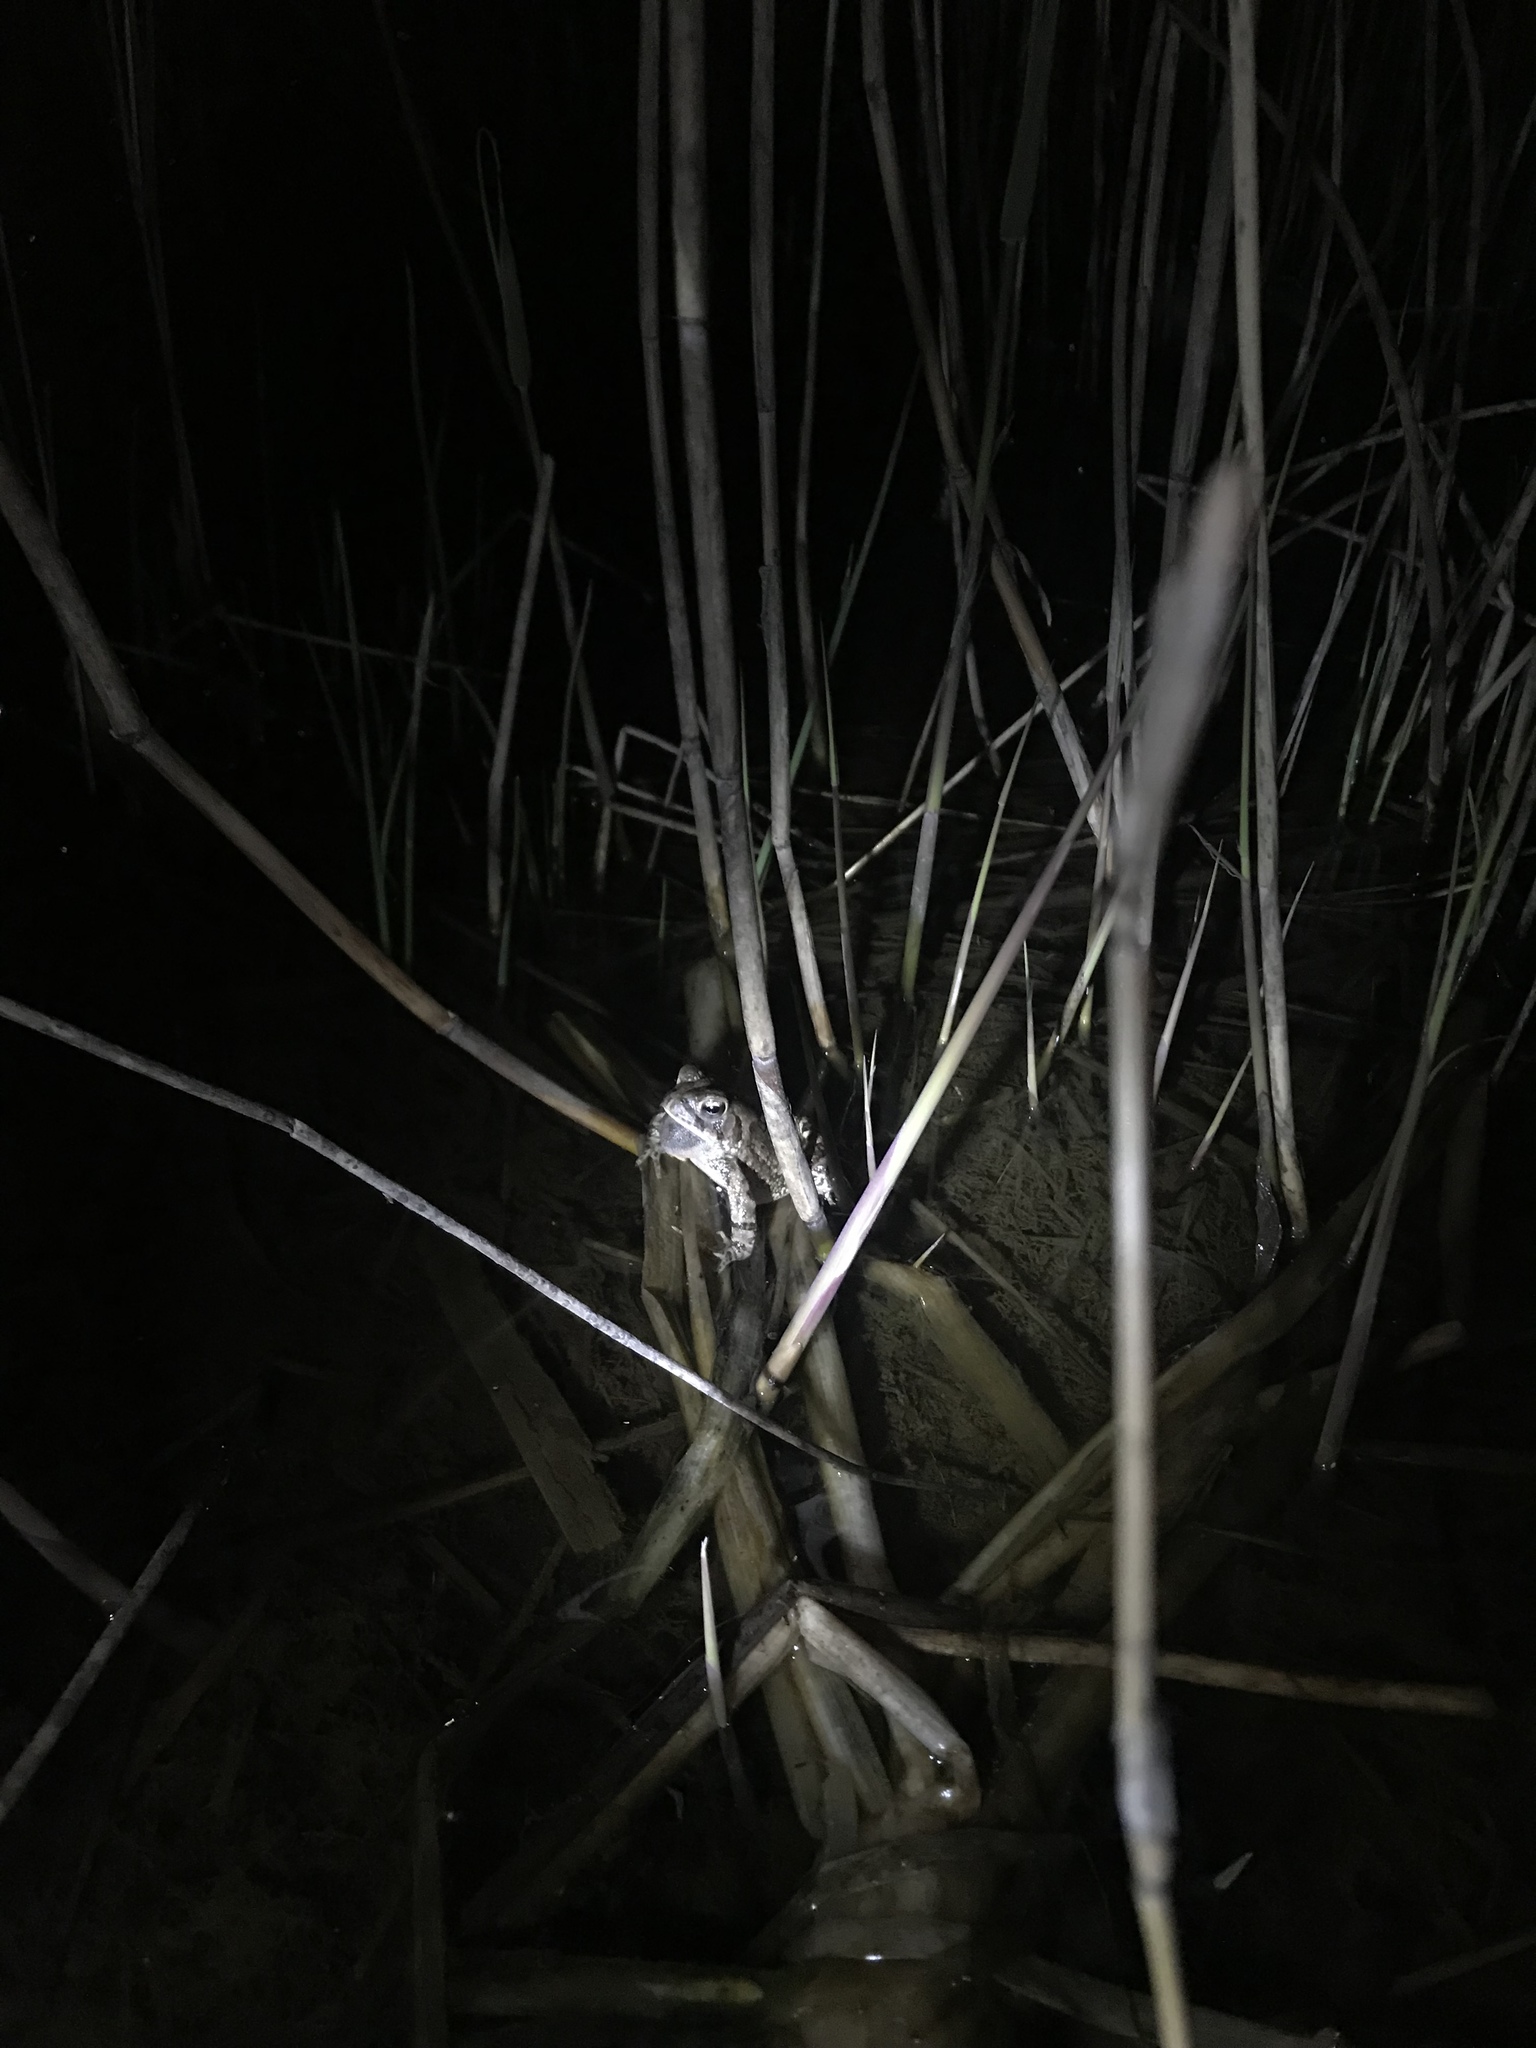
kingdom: Animalia
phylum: Chordata
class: Amphibia
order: Anura
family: Bufonidae
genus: Anaxyrus
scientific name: Anaxyrus fowleri
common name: Fowler's toad
